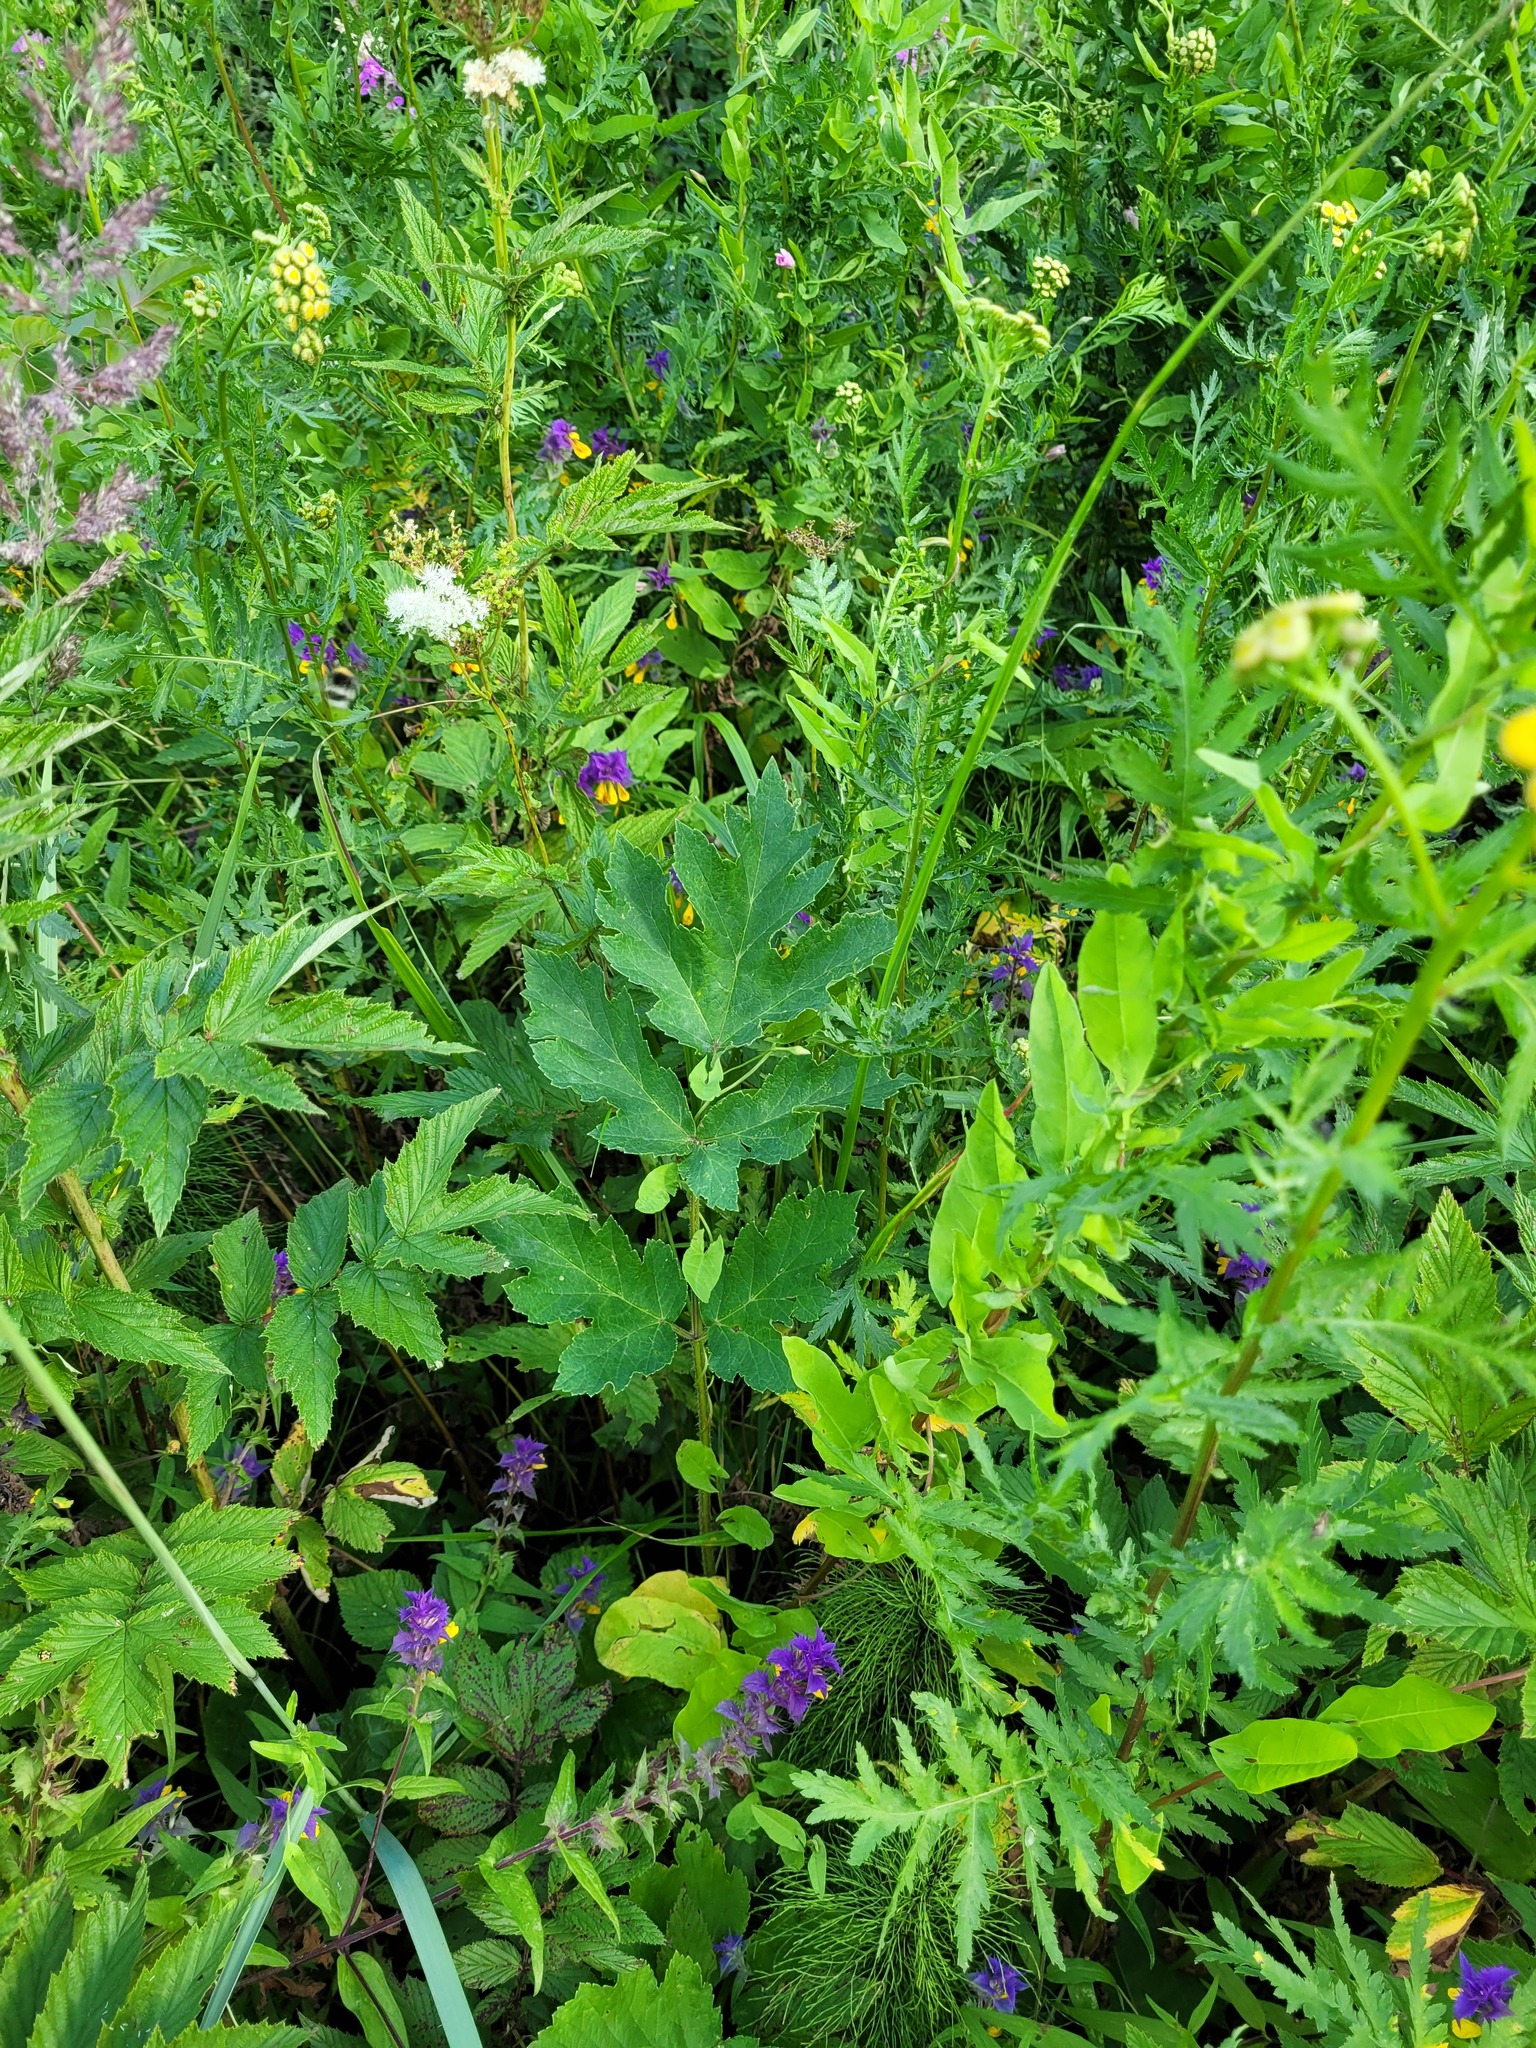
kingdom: Plantae
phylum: Tracheophyta
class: Magnoliopsida
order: Apiales
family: Apiaceae
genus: Heracleum
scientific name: Heracleum sphondylium
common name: Hogweed
